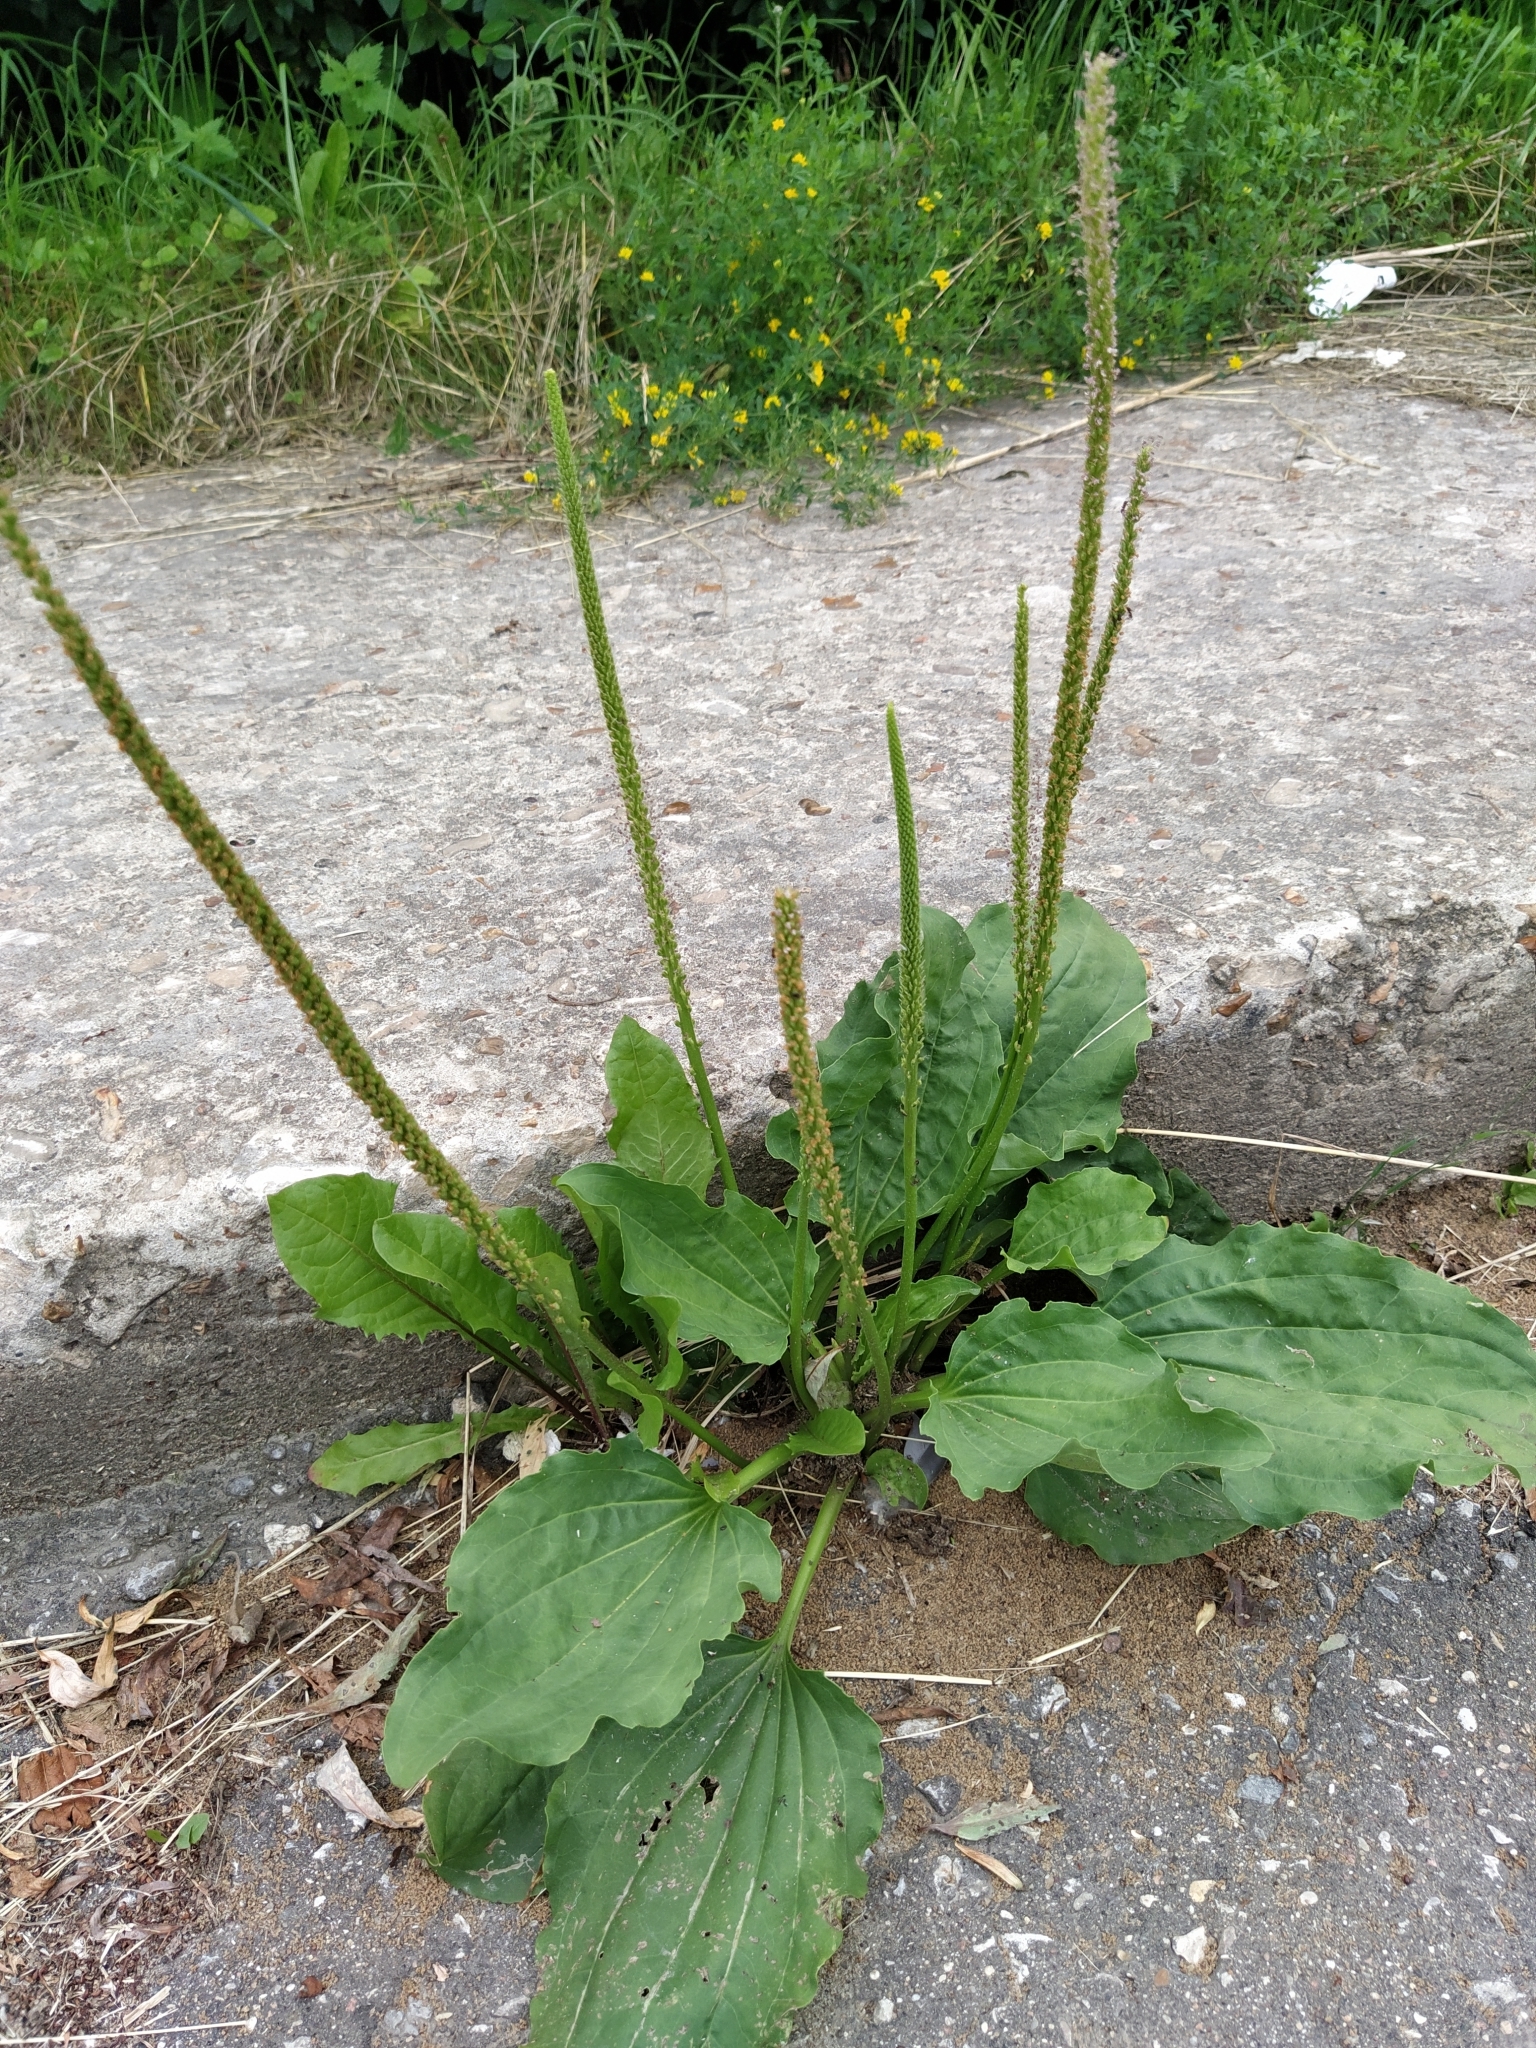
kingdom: Plantae
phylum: Tracheophyta
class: Magnoliopsida
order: Lamiales
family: Plantaginaceae
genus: Plantago
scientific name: Plantago major
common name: Common plantain
